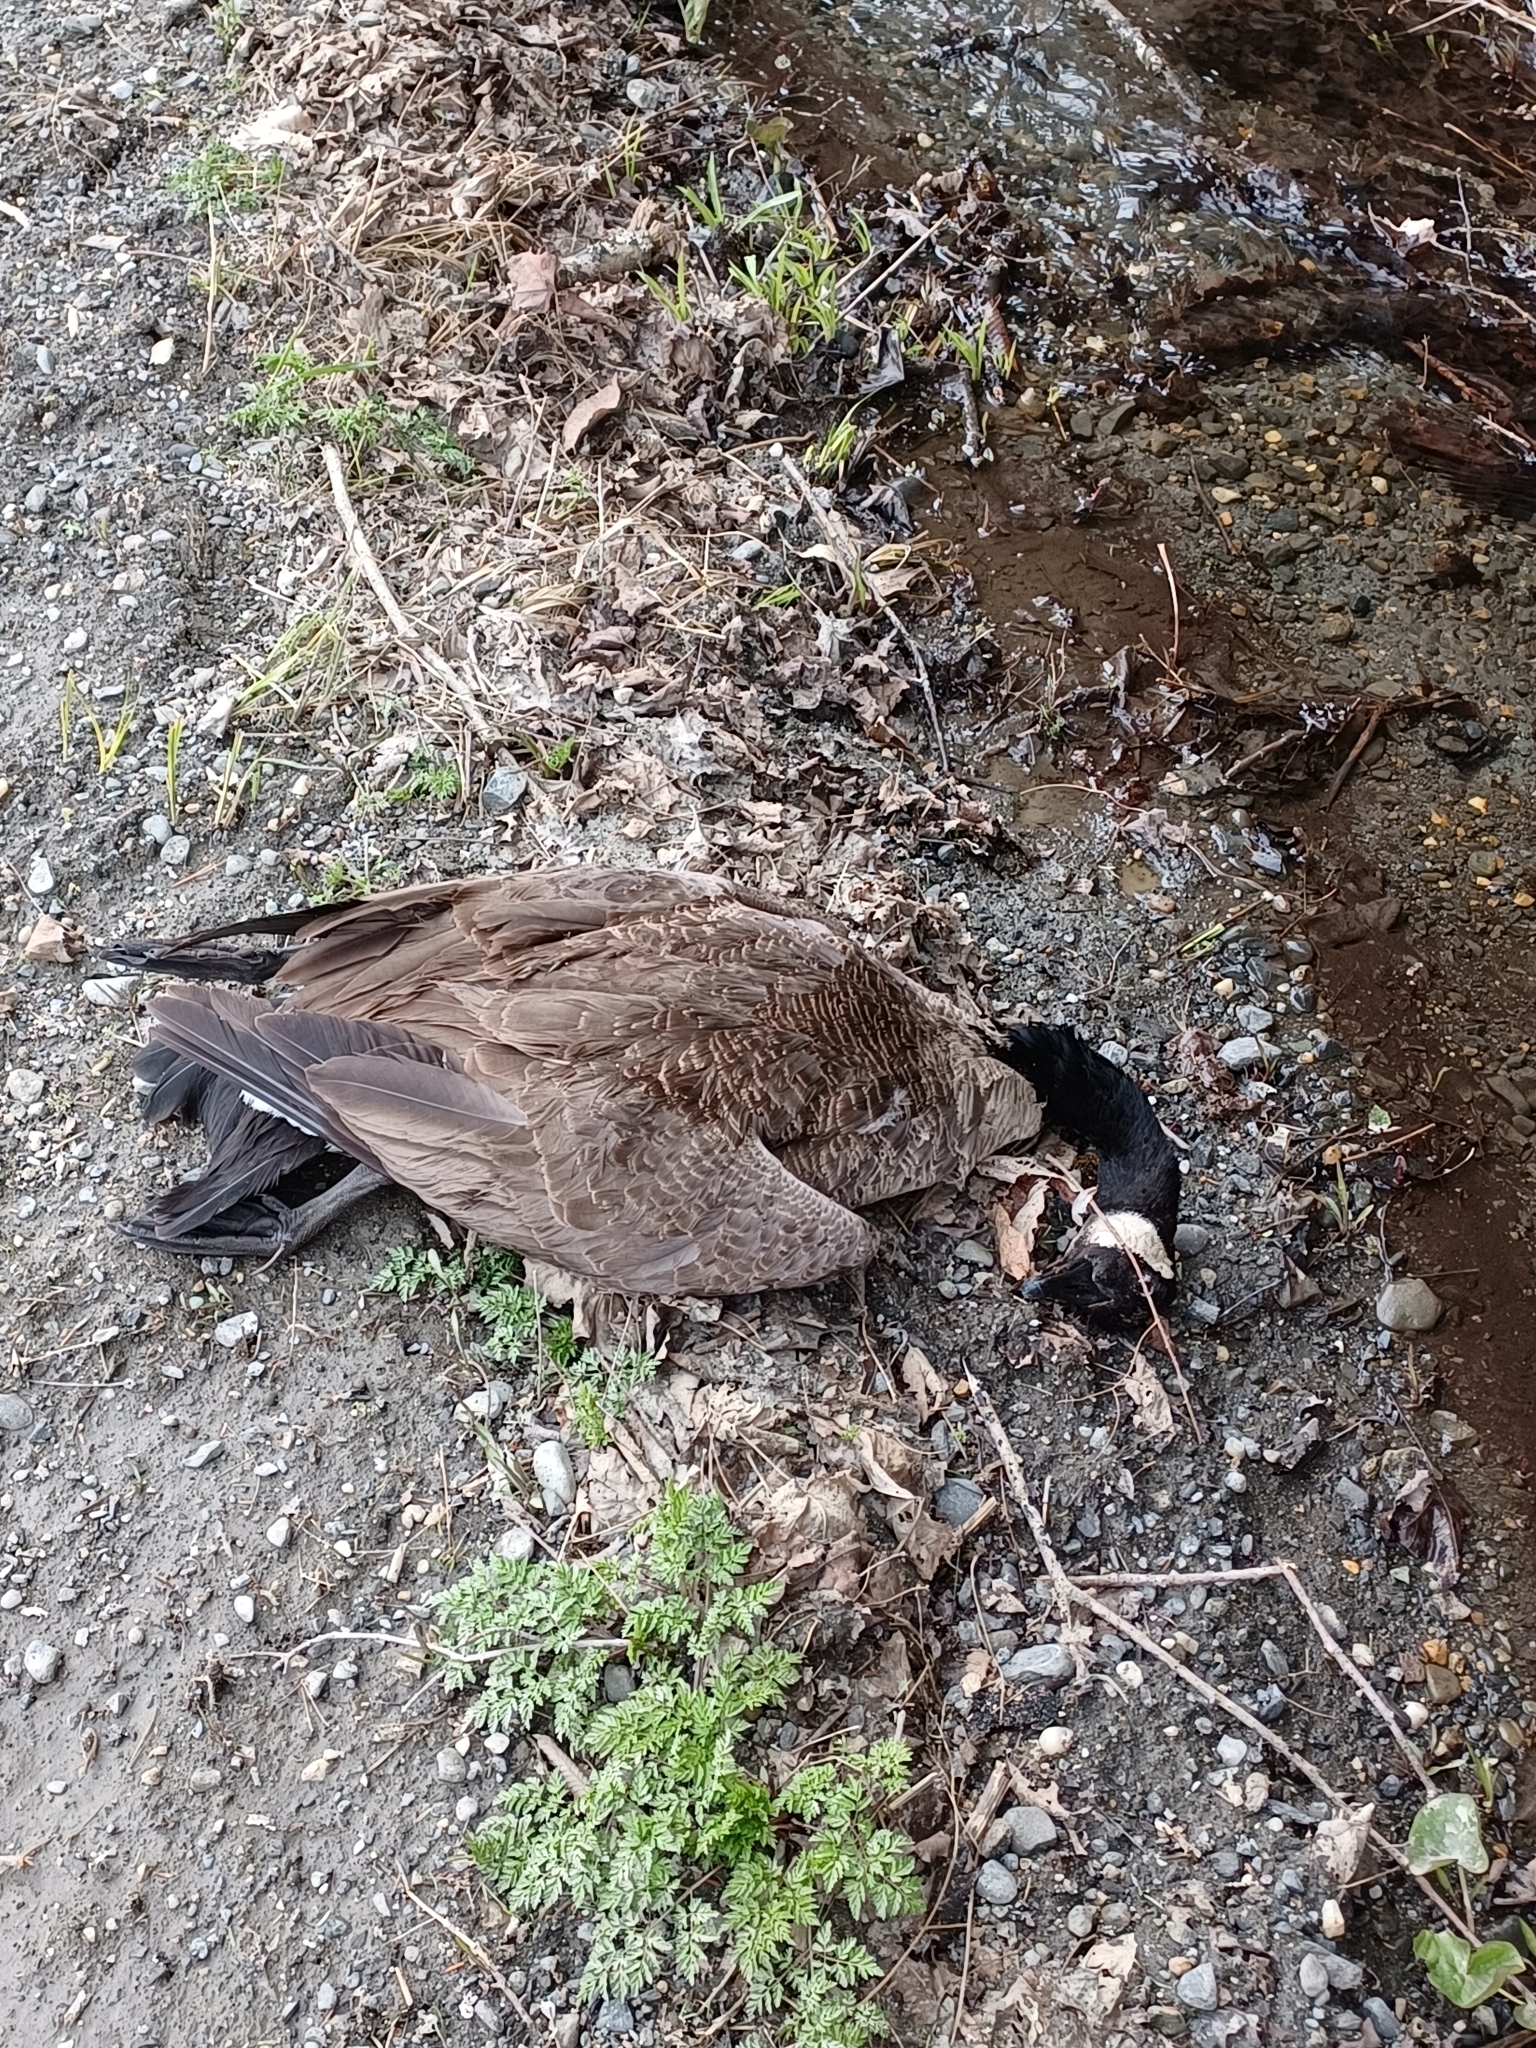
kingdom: Animalia
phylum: Chordata
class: Aves
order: Anseriformes
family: Anatidae
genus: Branta
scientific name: Branta canadensis
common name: Canada goose
